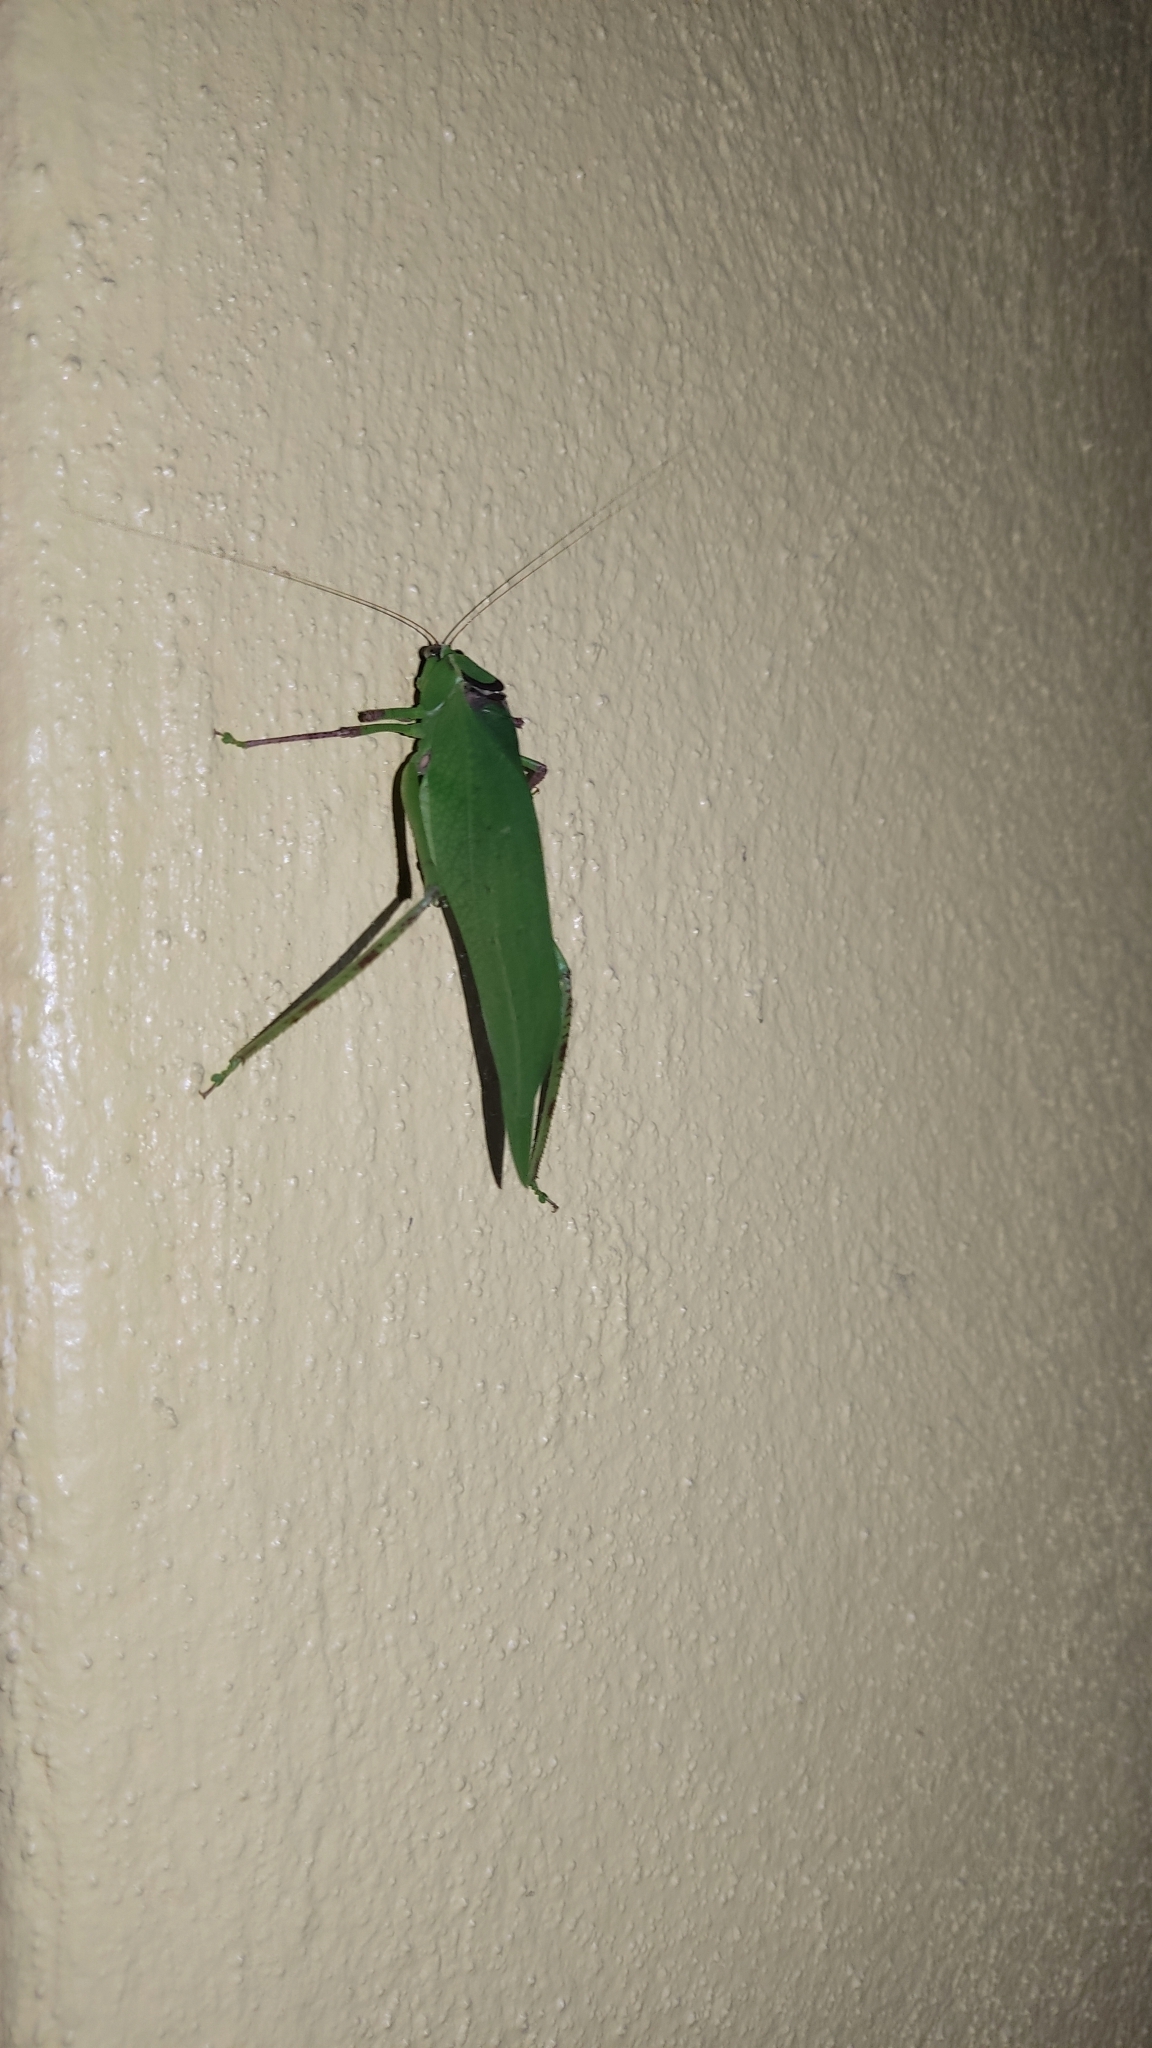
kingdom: Animalia
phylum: Arthropoda
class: Insecta
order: Orthoptera
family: Tettigoniidae
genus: Stilpnochlora
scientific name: Stilpnochlora thoracica
